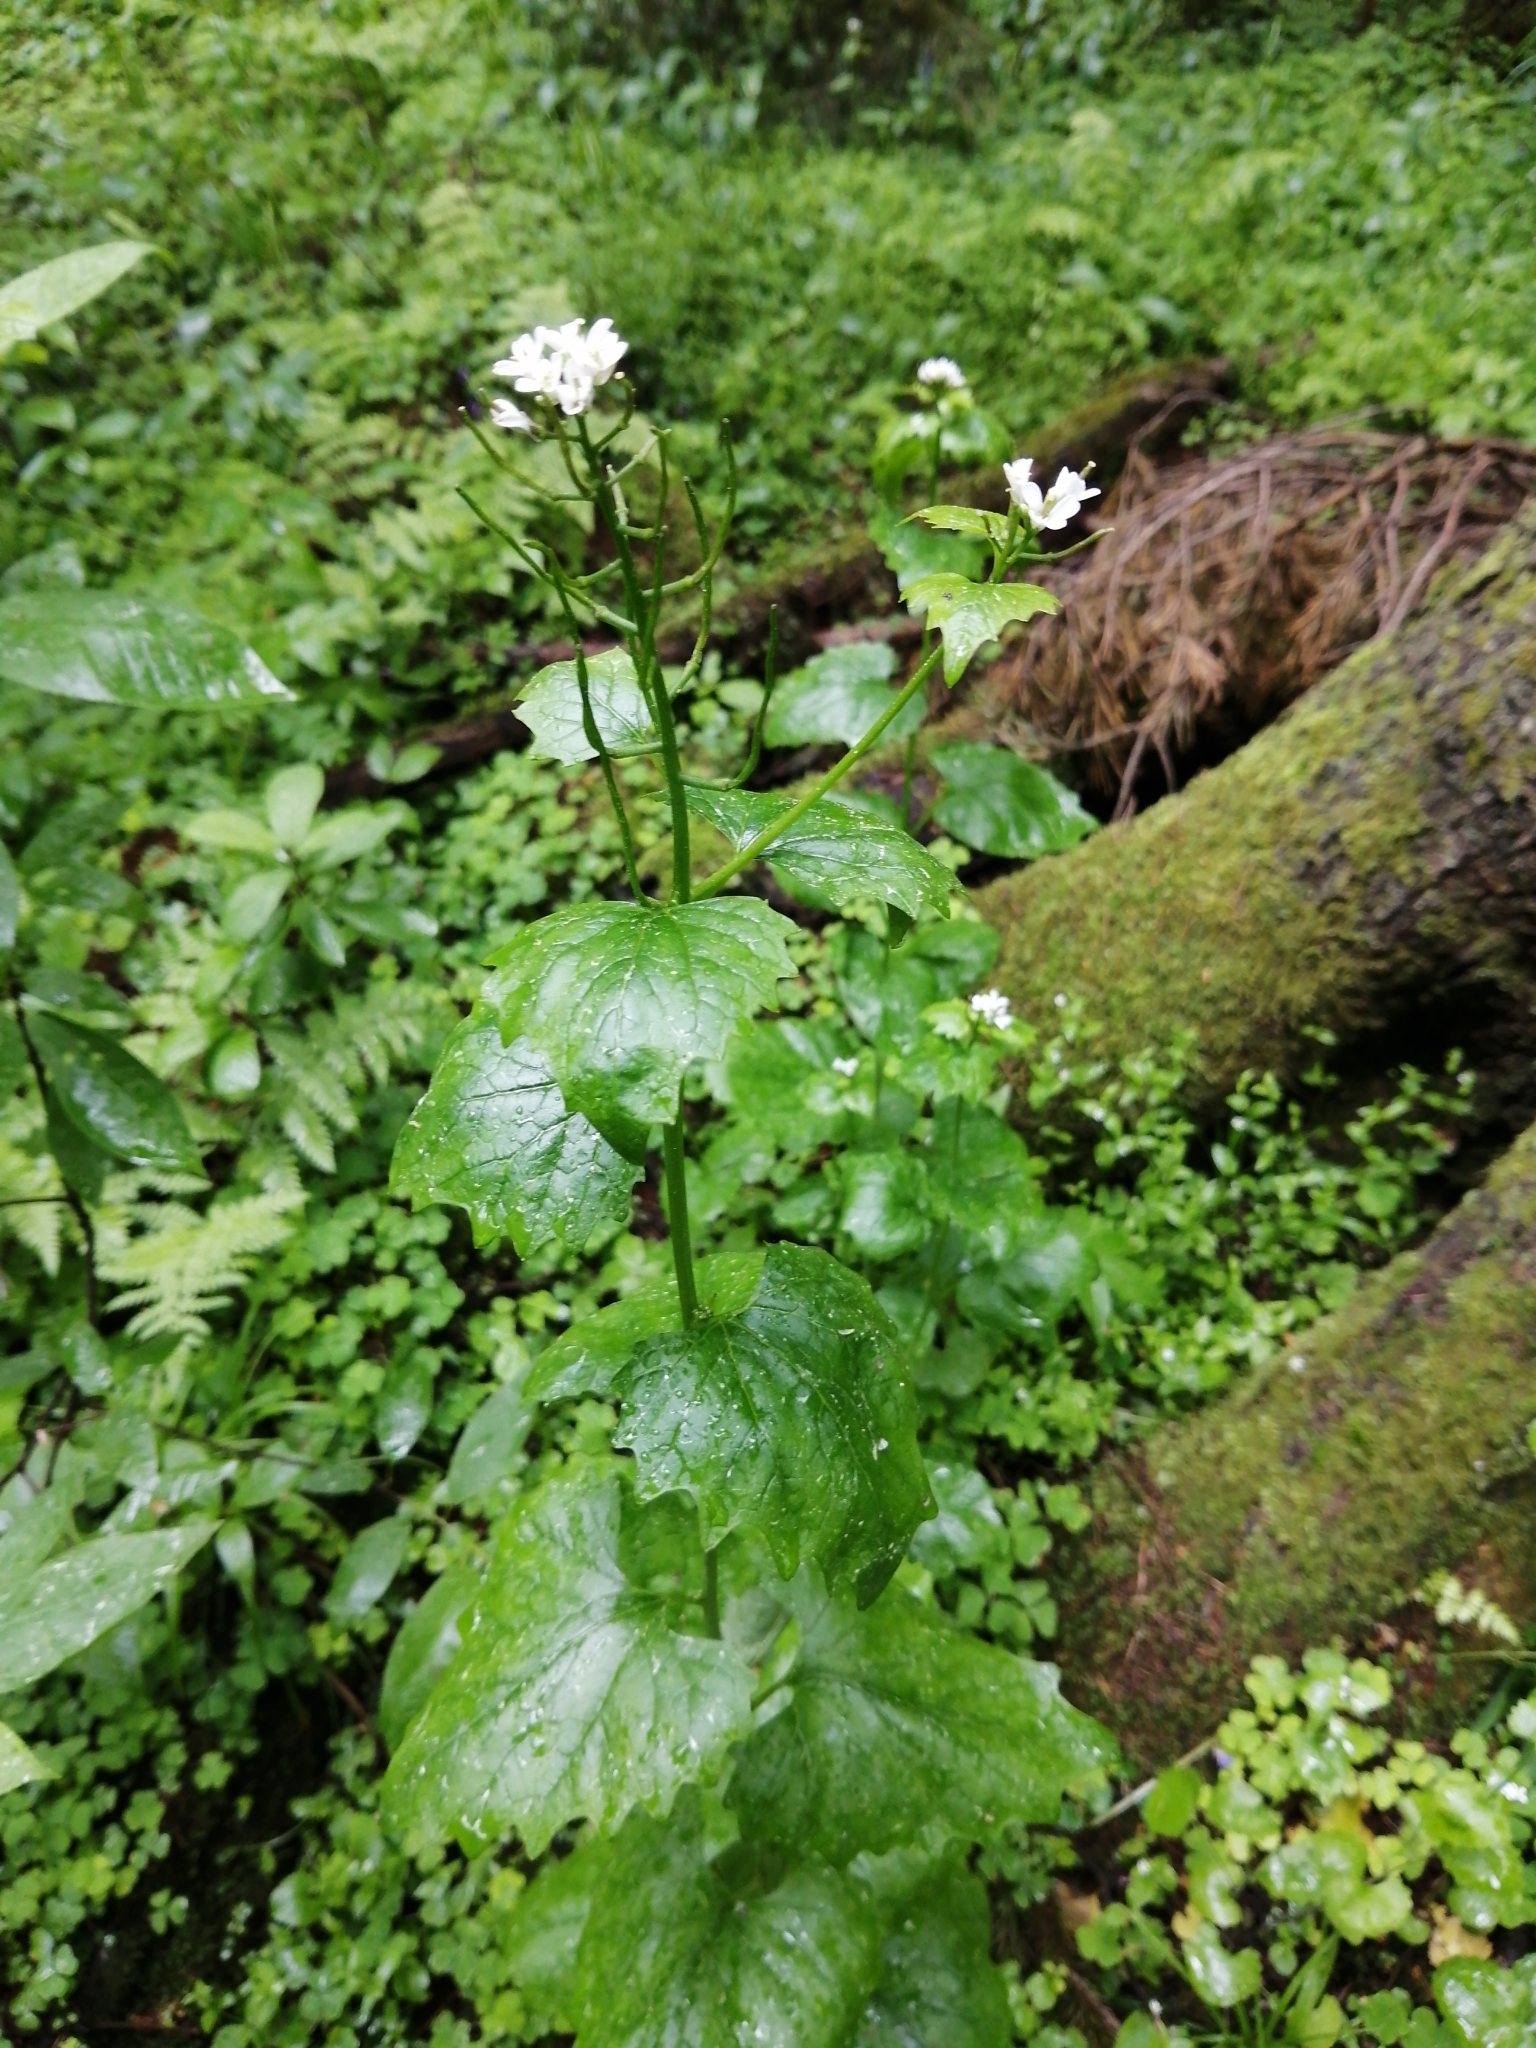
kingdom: Plantae
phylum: Tracheophyta
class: Magnoliopsida
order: Brassicales
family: Brassicaceae
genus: Alliaria
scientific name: Alliaria petiolata
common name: Garlic mustard
